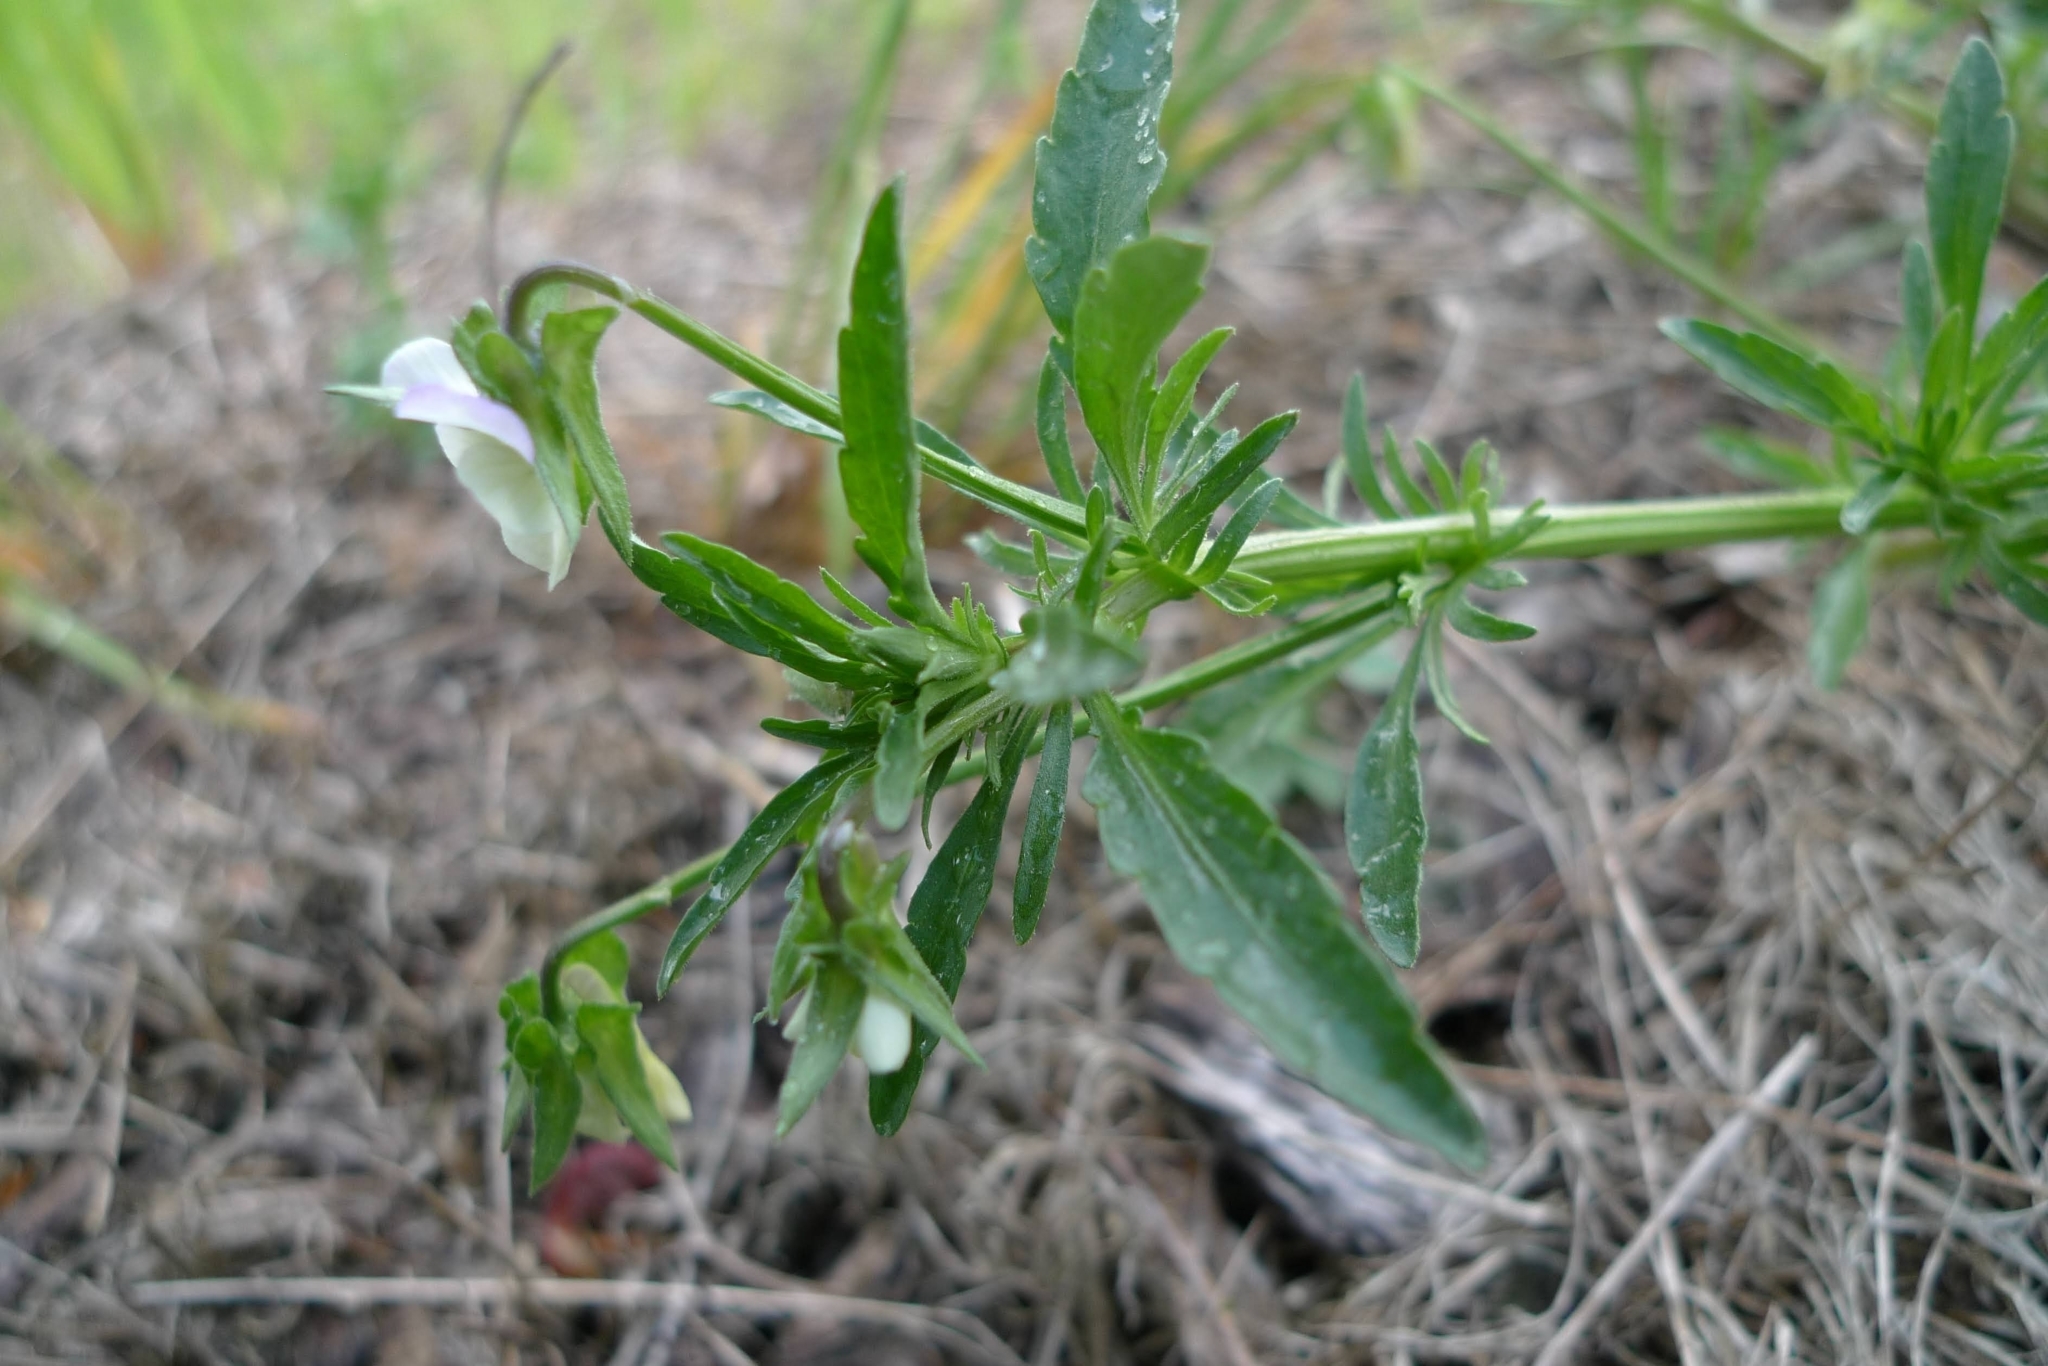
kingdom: Plantae
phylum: Tracheophyta
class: Magnoliopsida
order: Malpighiales
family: Violaceae
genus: Viola
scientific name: Viola arvensis
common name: Field pansy
